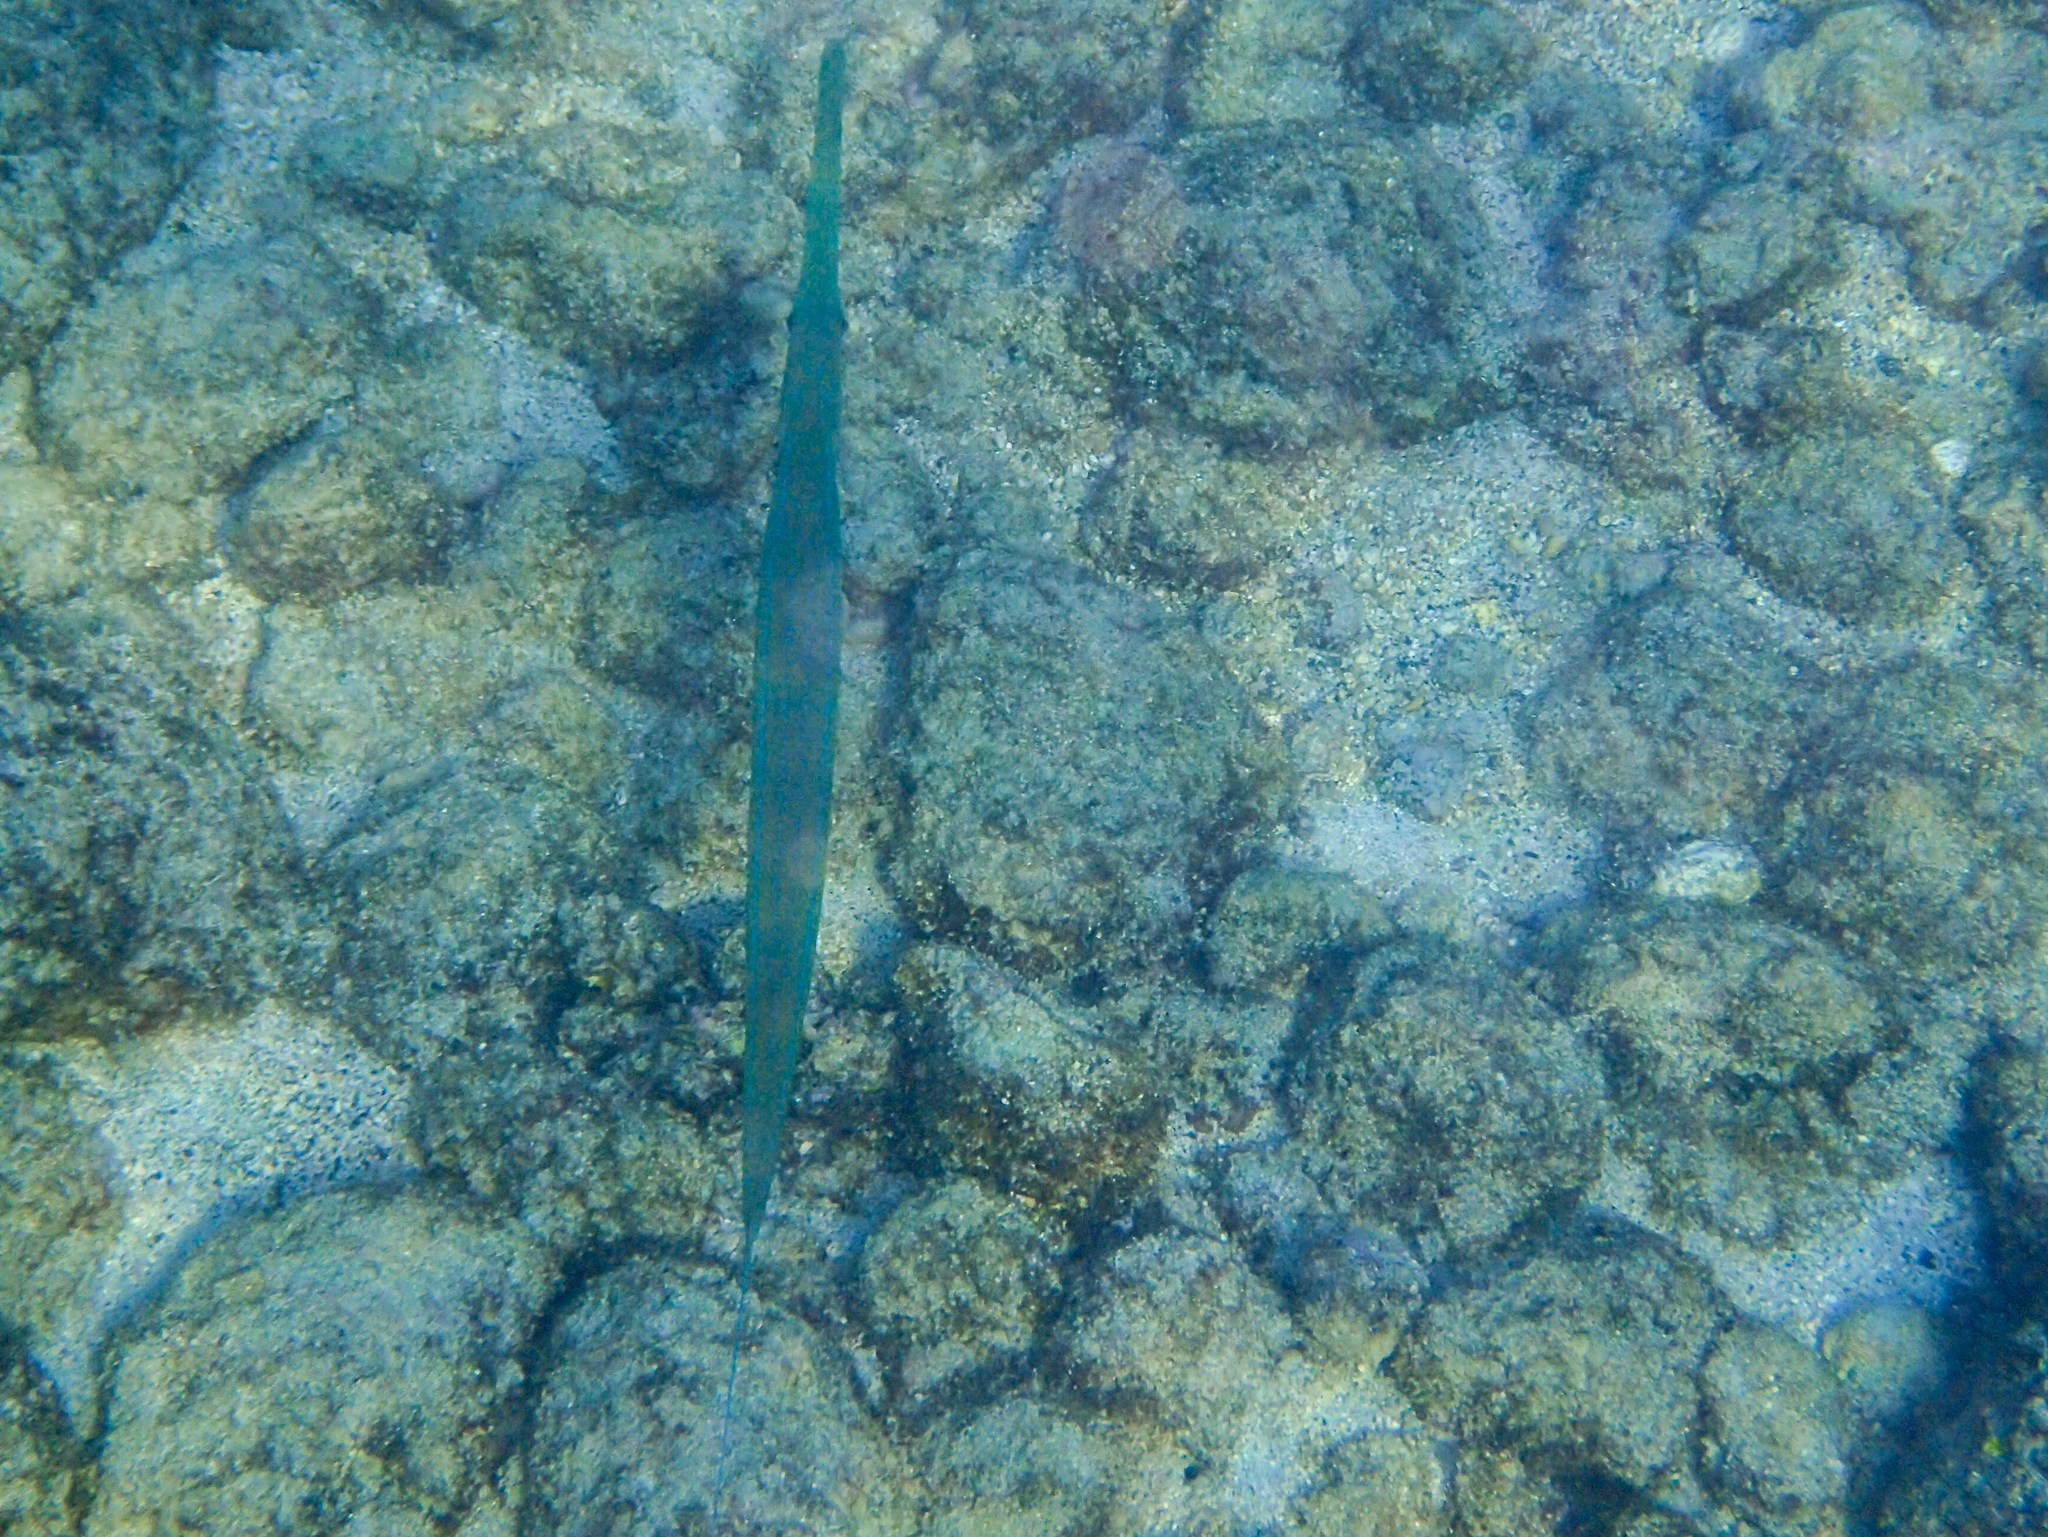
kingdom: Animalia
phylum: Chordata
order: Syngnathiformes
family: Fistulariidae
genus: Fistularia
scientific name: Fistularia commersonii
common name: Bluespotted cornetfish
